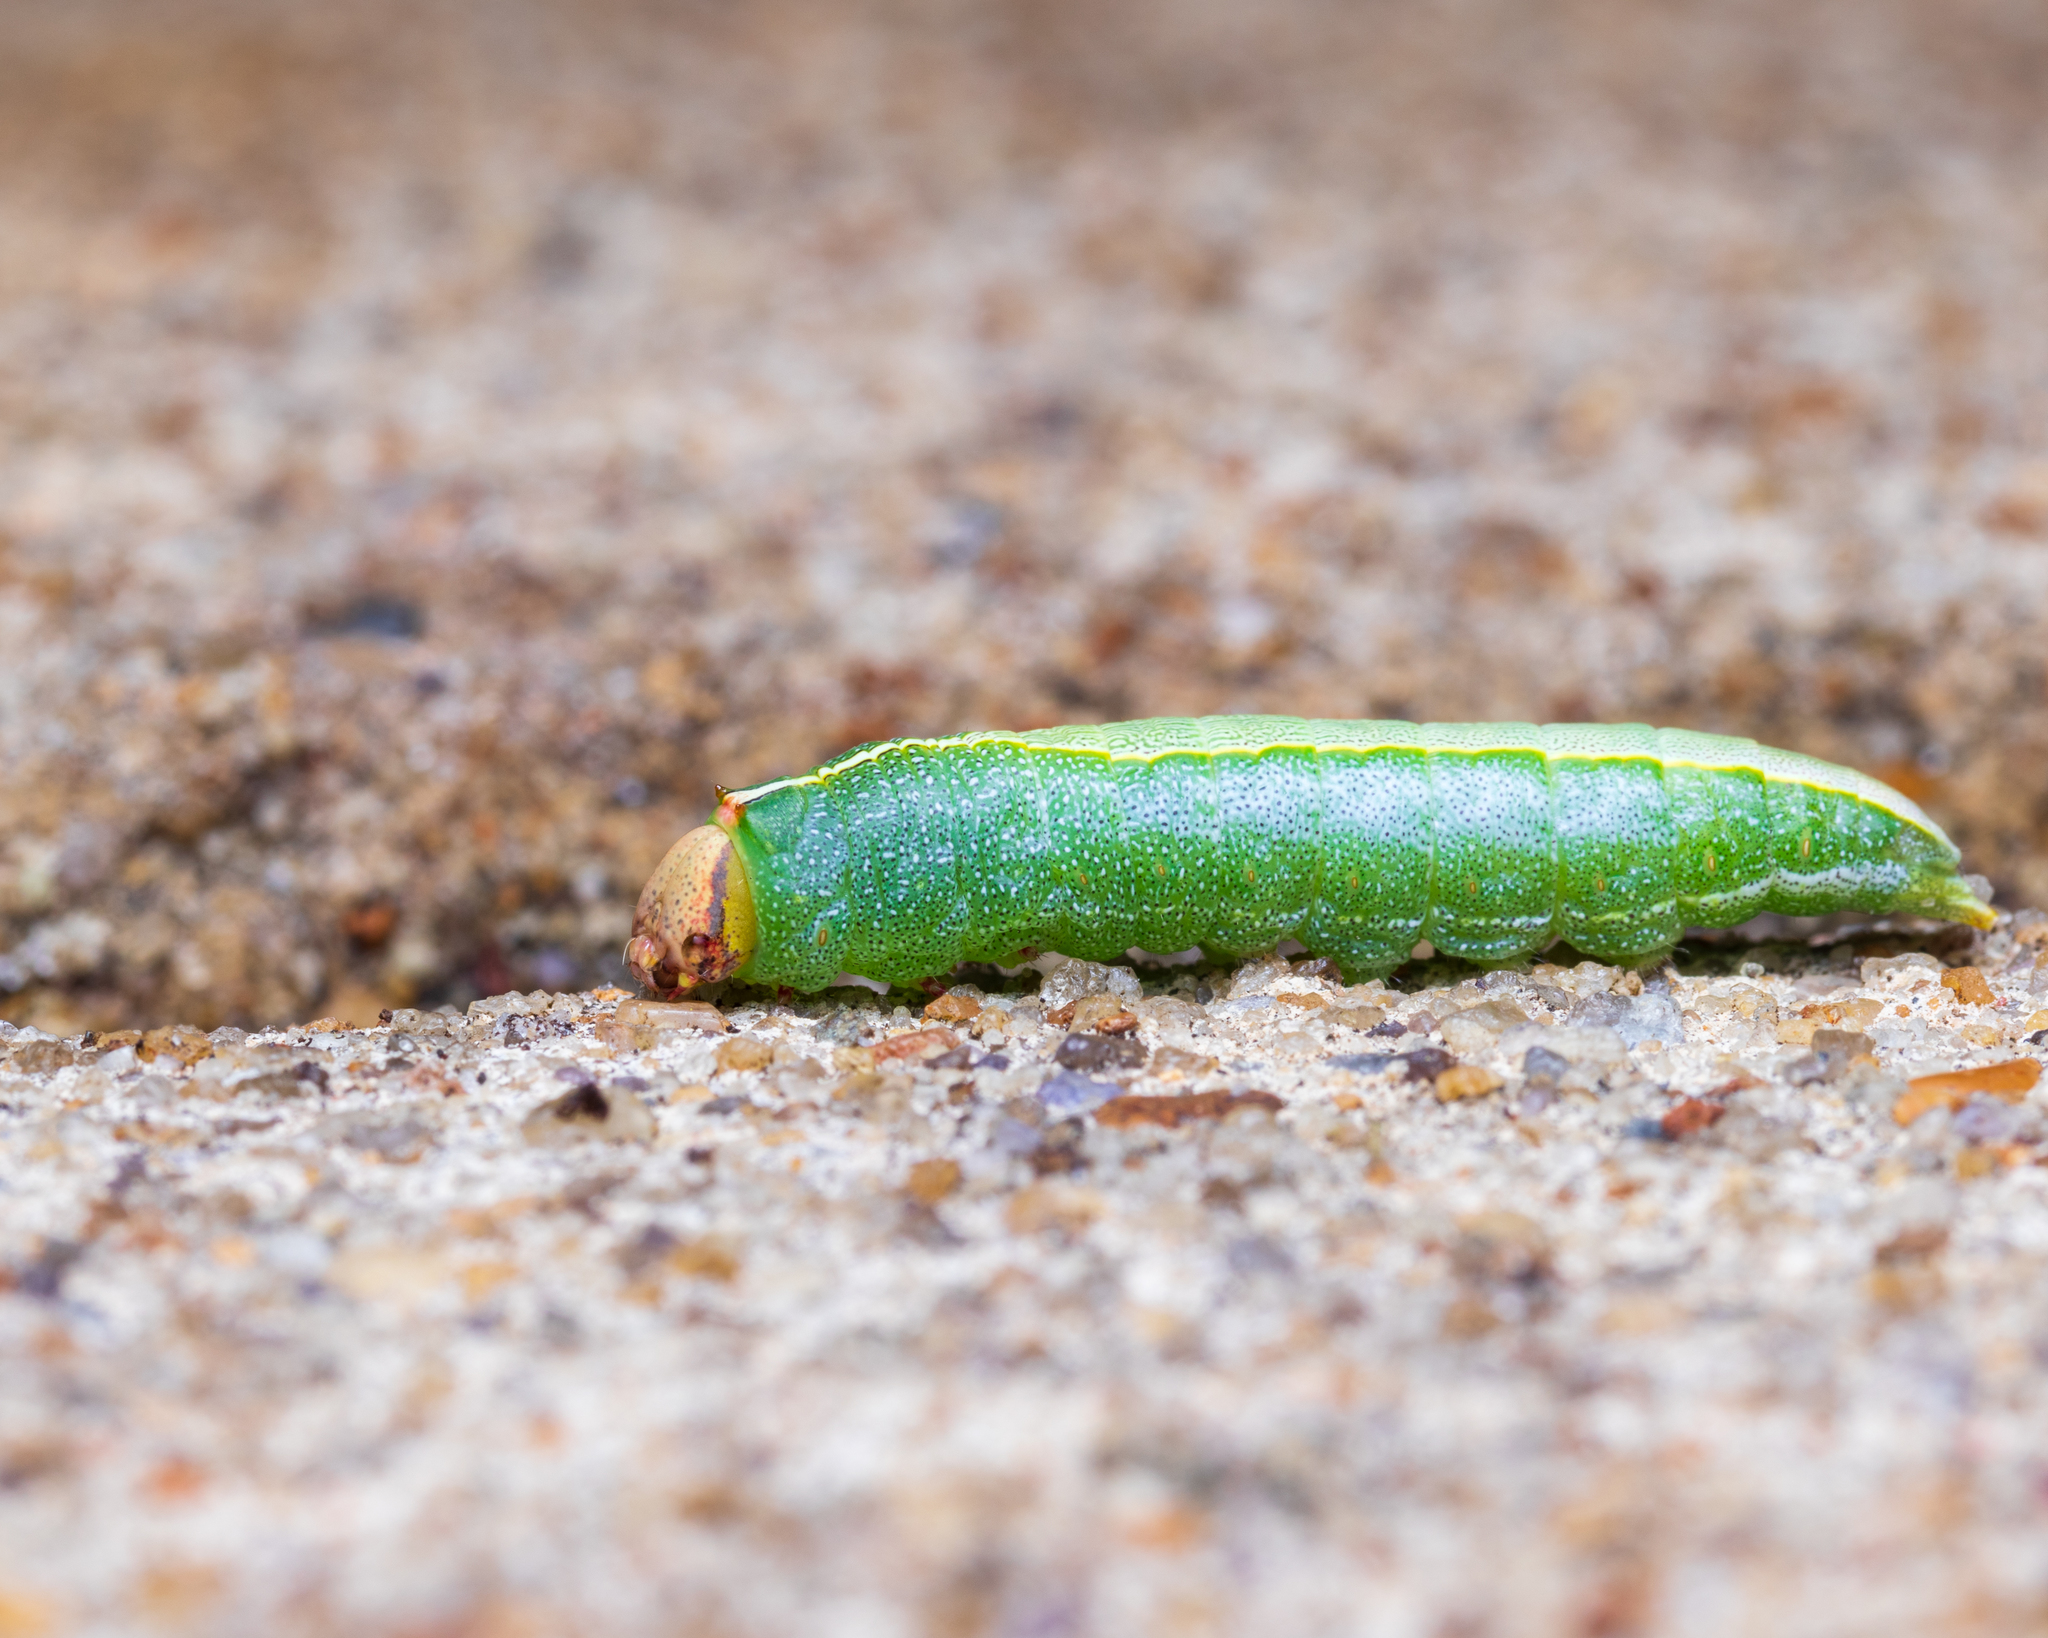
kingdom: Animalia
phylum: Arthropoda
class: Insecta
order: Lepidoptera
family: Notodontidae
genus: Heterocampa
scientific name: Heterocampa astarte
